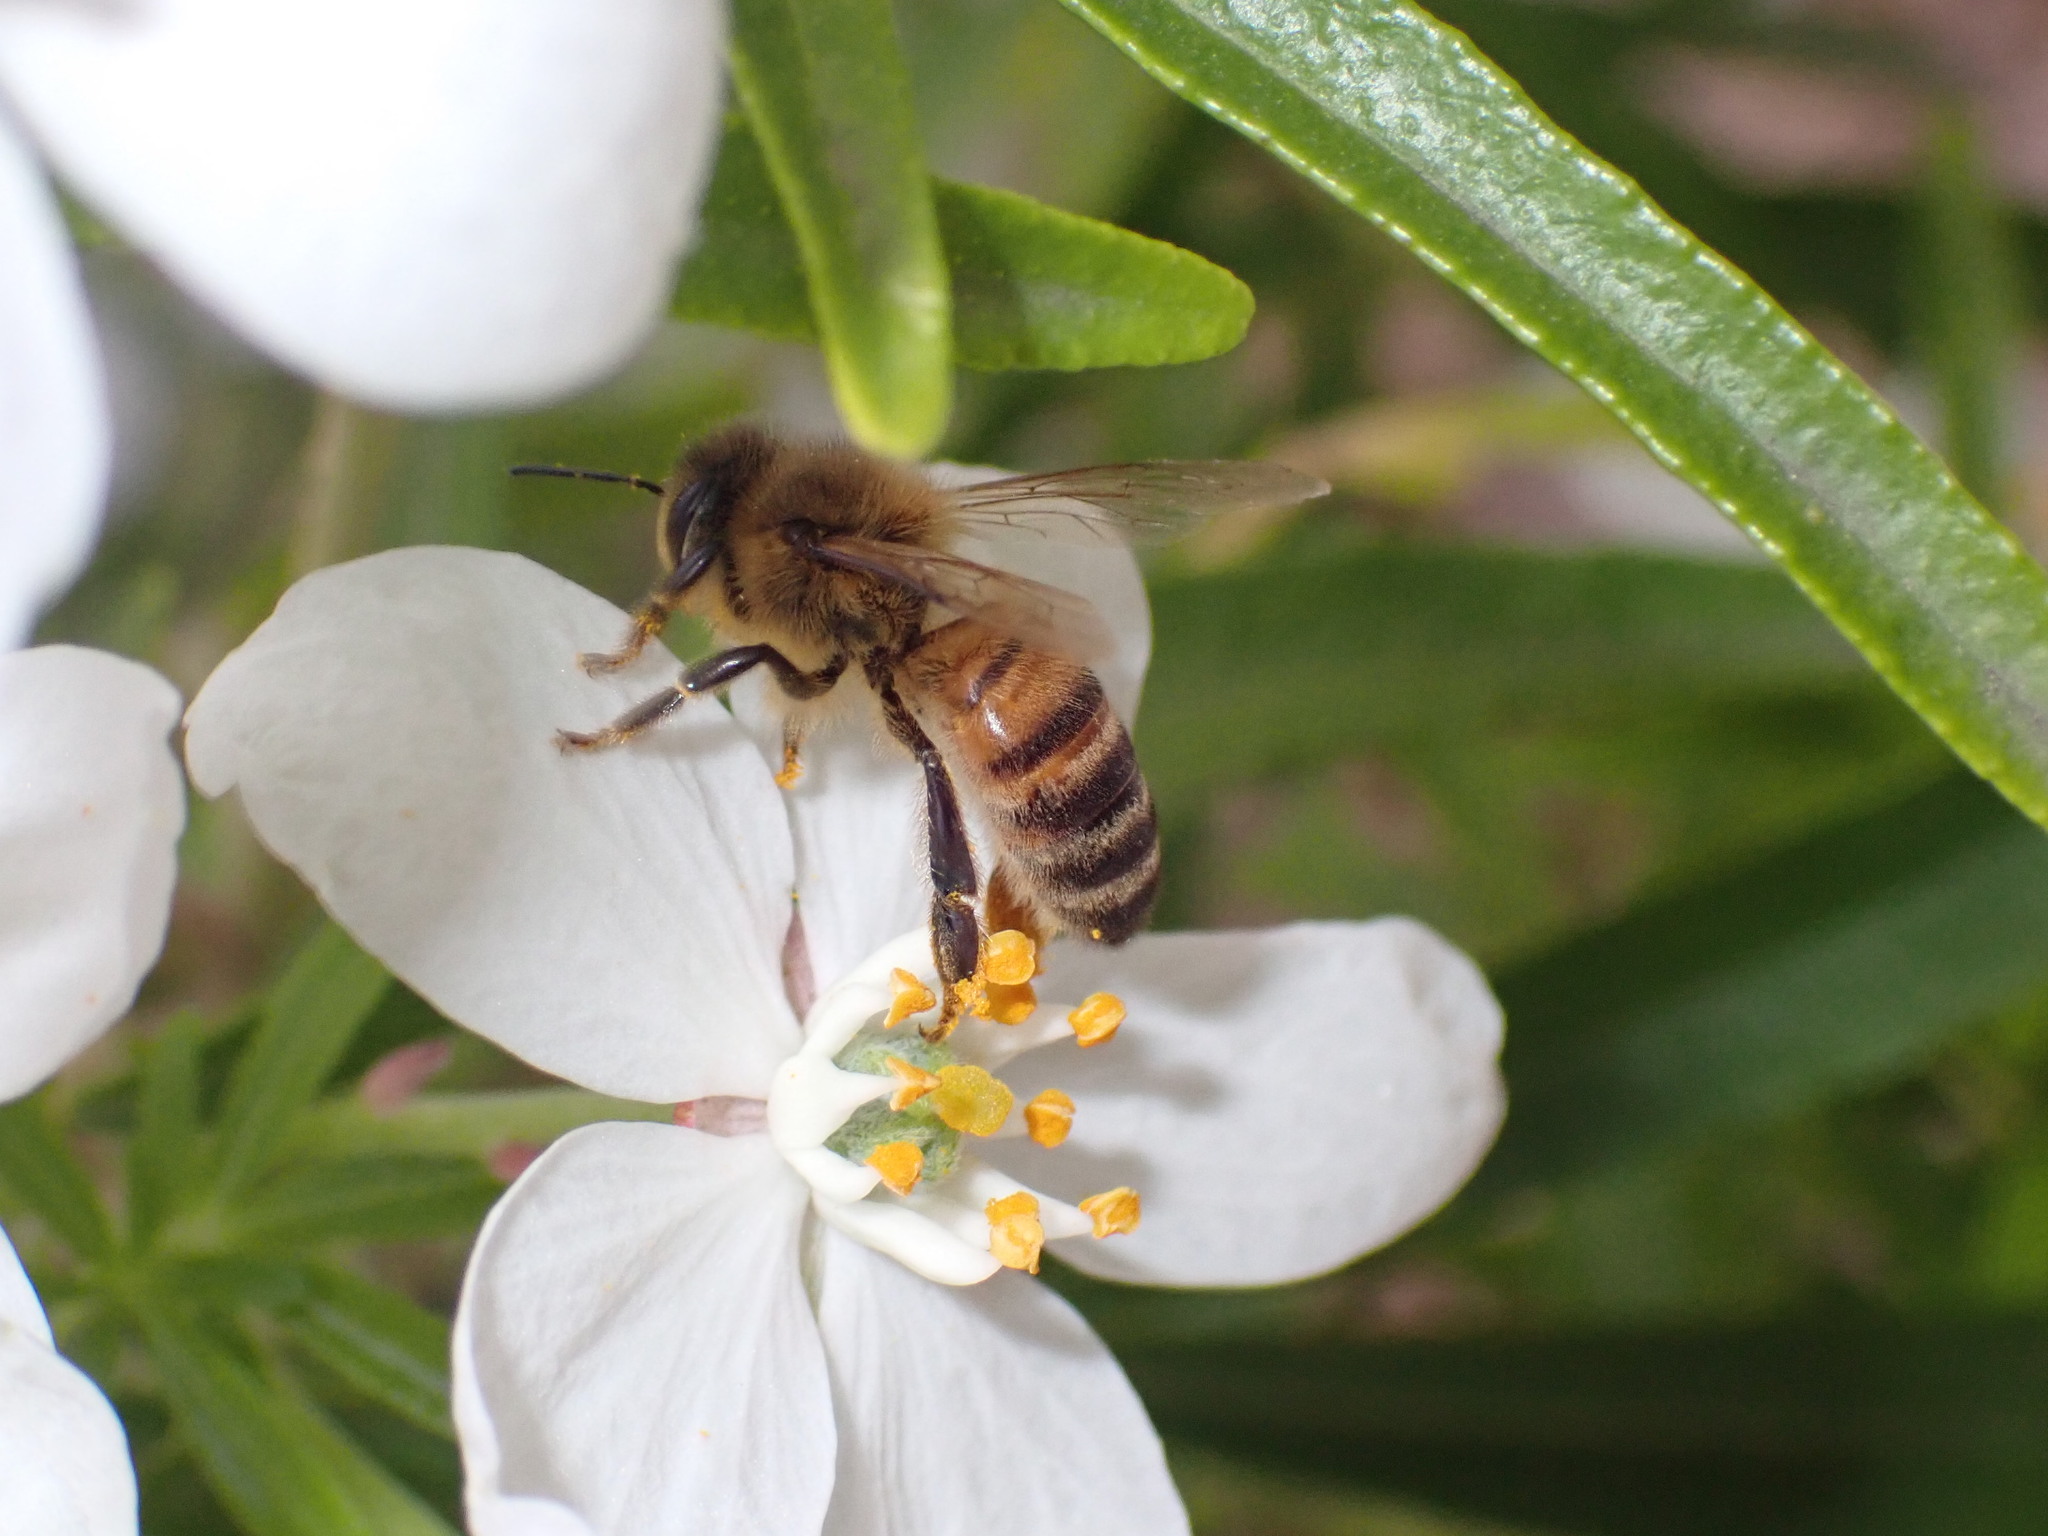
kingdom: Animalia
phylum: Arthropoda
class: Insecta
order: Hymenoptera
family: Apidae
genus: Apis
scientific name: Apis mellifera
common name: Honey bee
